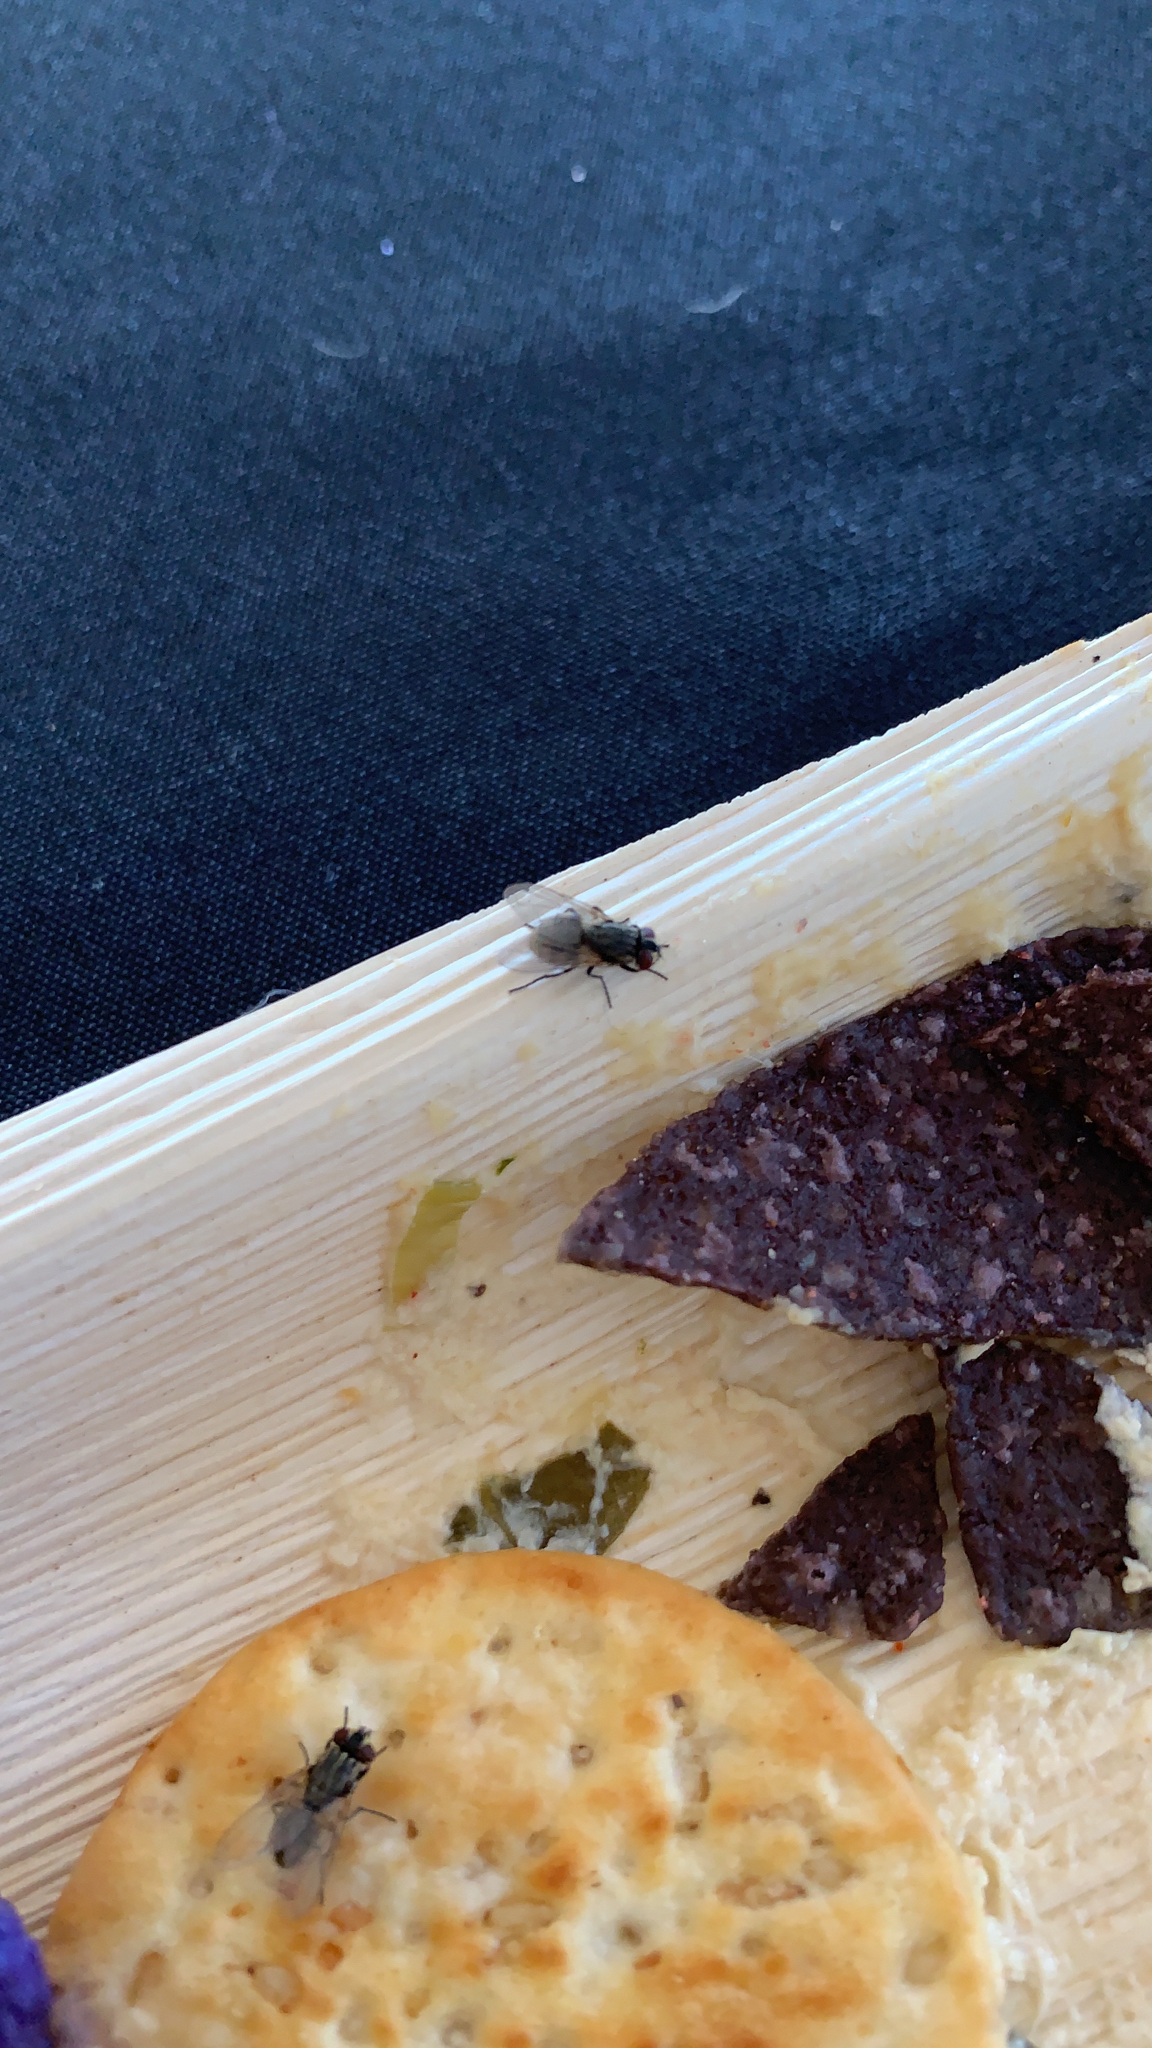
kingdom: Animalia
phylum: Arthropoda
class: Insecta
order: Diptera
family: Muscidae
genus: Musca
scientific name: Musca domestica
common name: House fly
